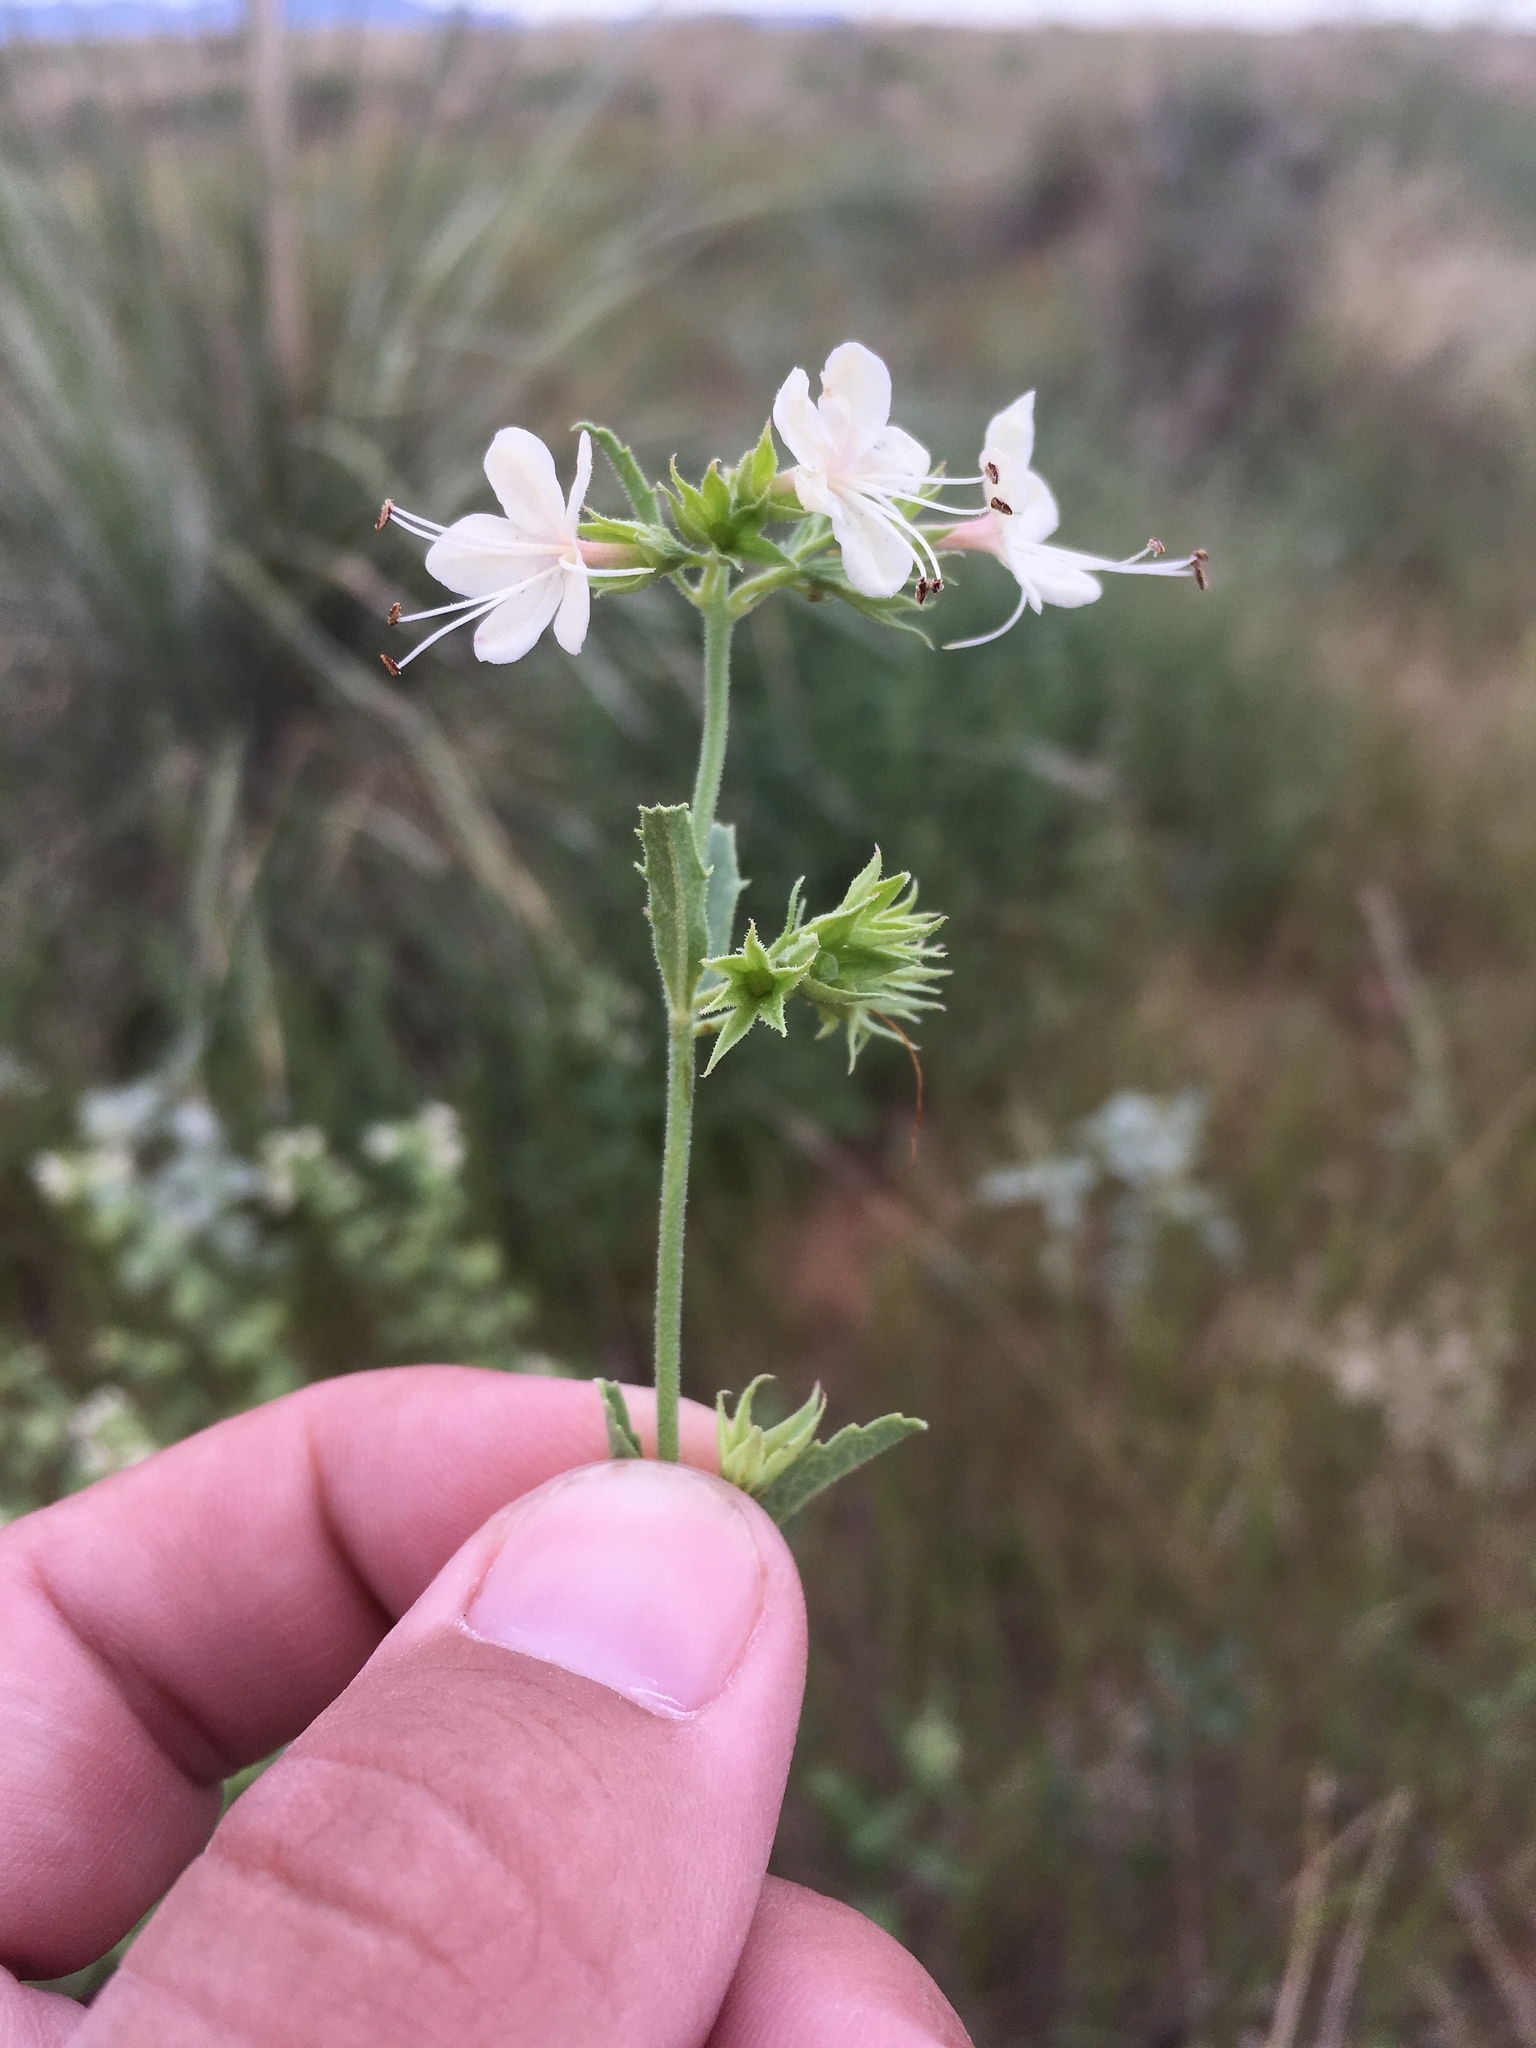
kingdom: Plantae
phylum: Tracheophyta
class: Magnoliopsida
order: Lamiales
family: Lamiaceae
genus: Tetraclea
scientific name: Tetraclea coulteri
